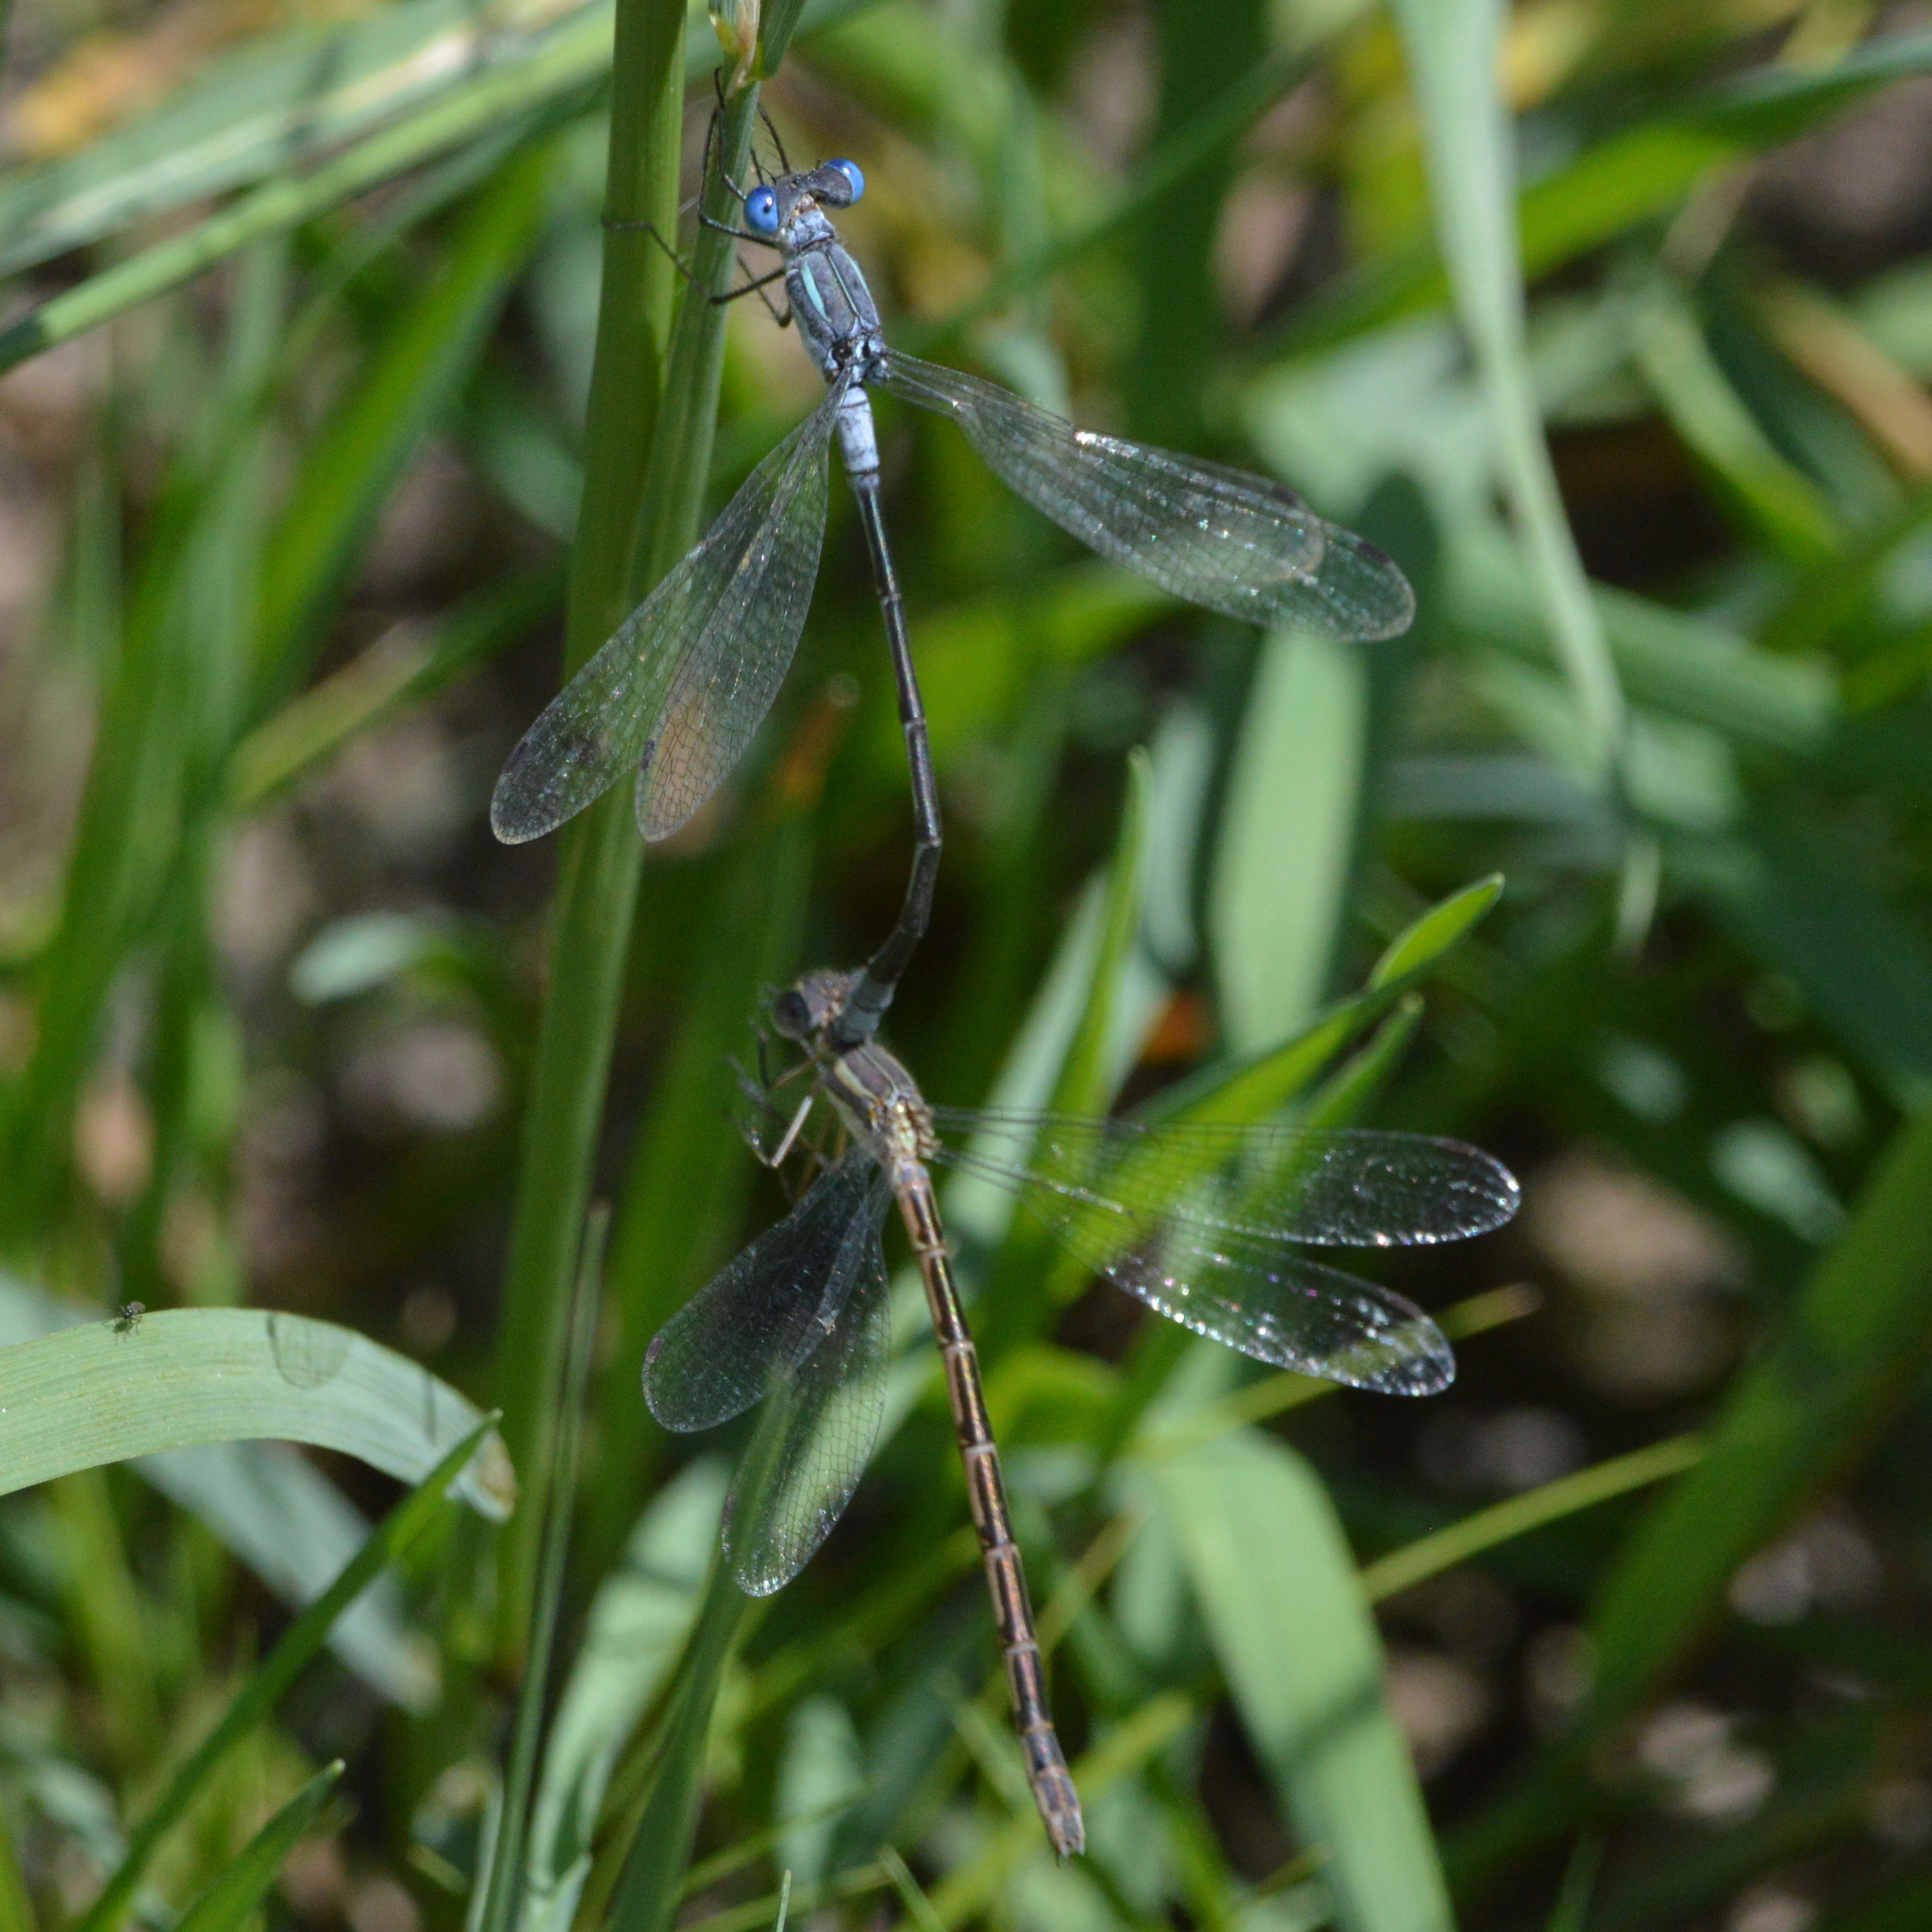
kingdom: Animalia
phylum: Arthropoda
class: Insecta
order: Odonata
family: Lestidae
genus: Lestes
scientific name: Lestes disjunctus
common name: Northern spreadwing
